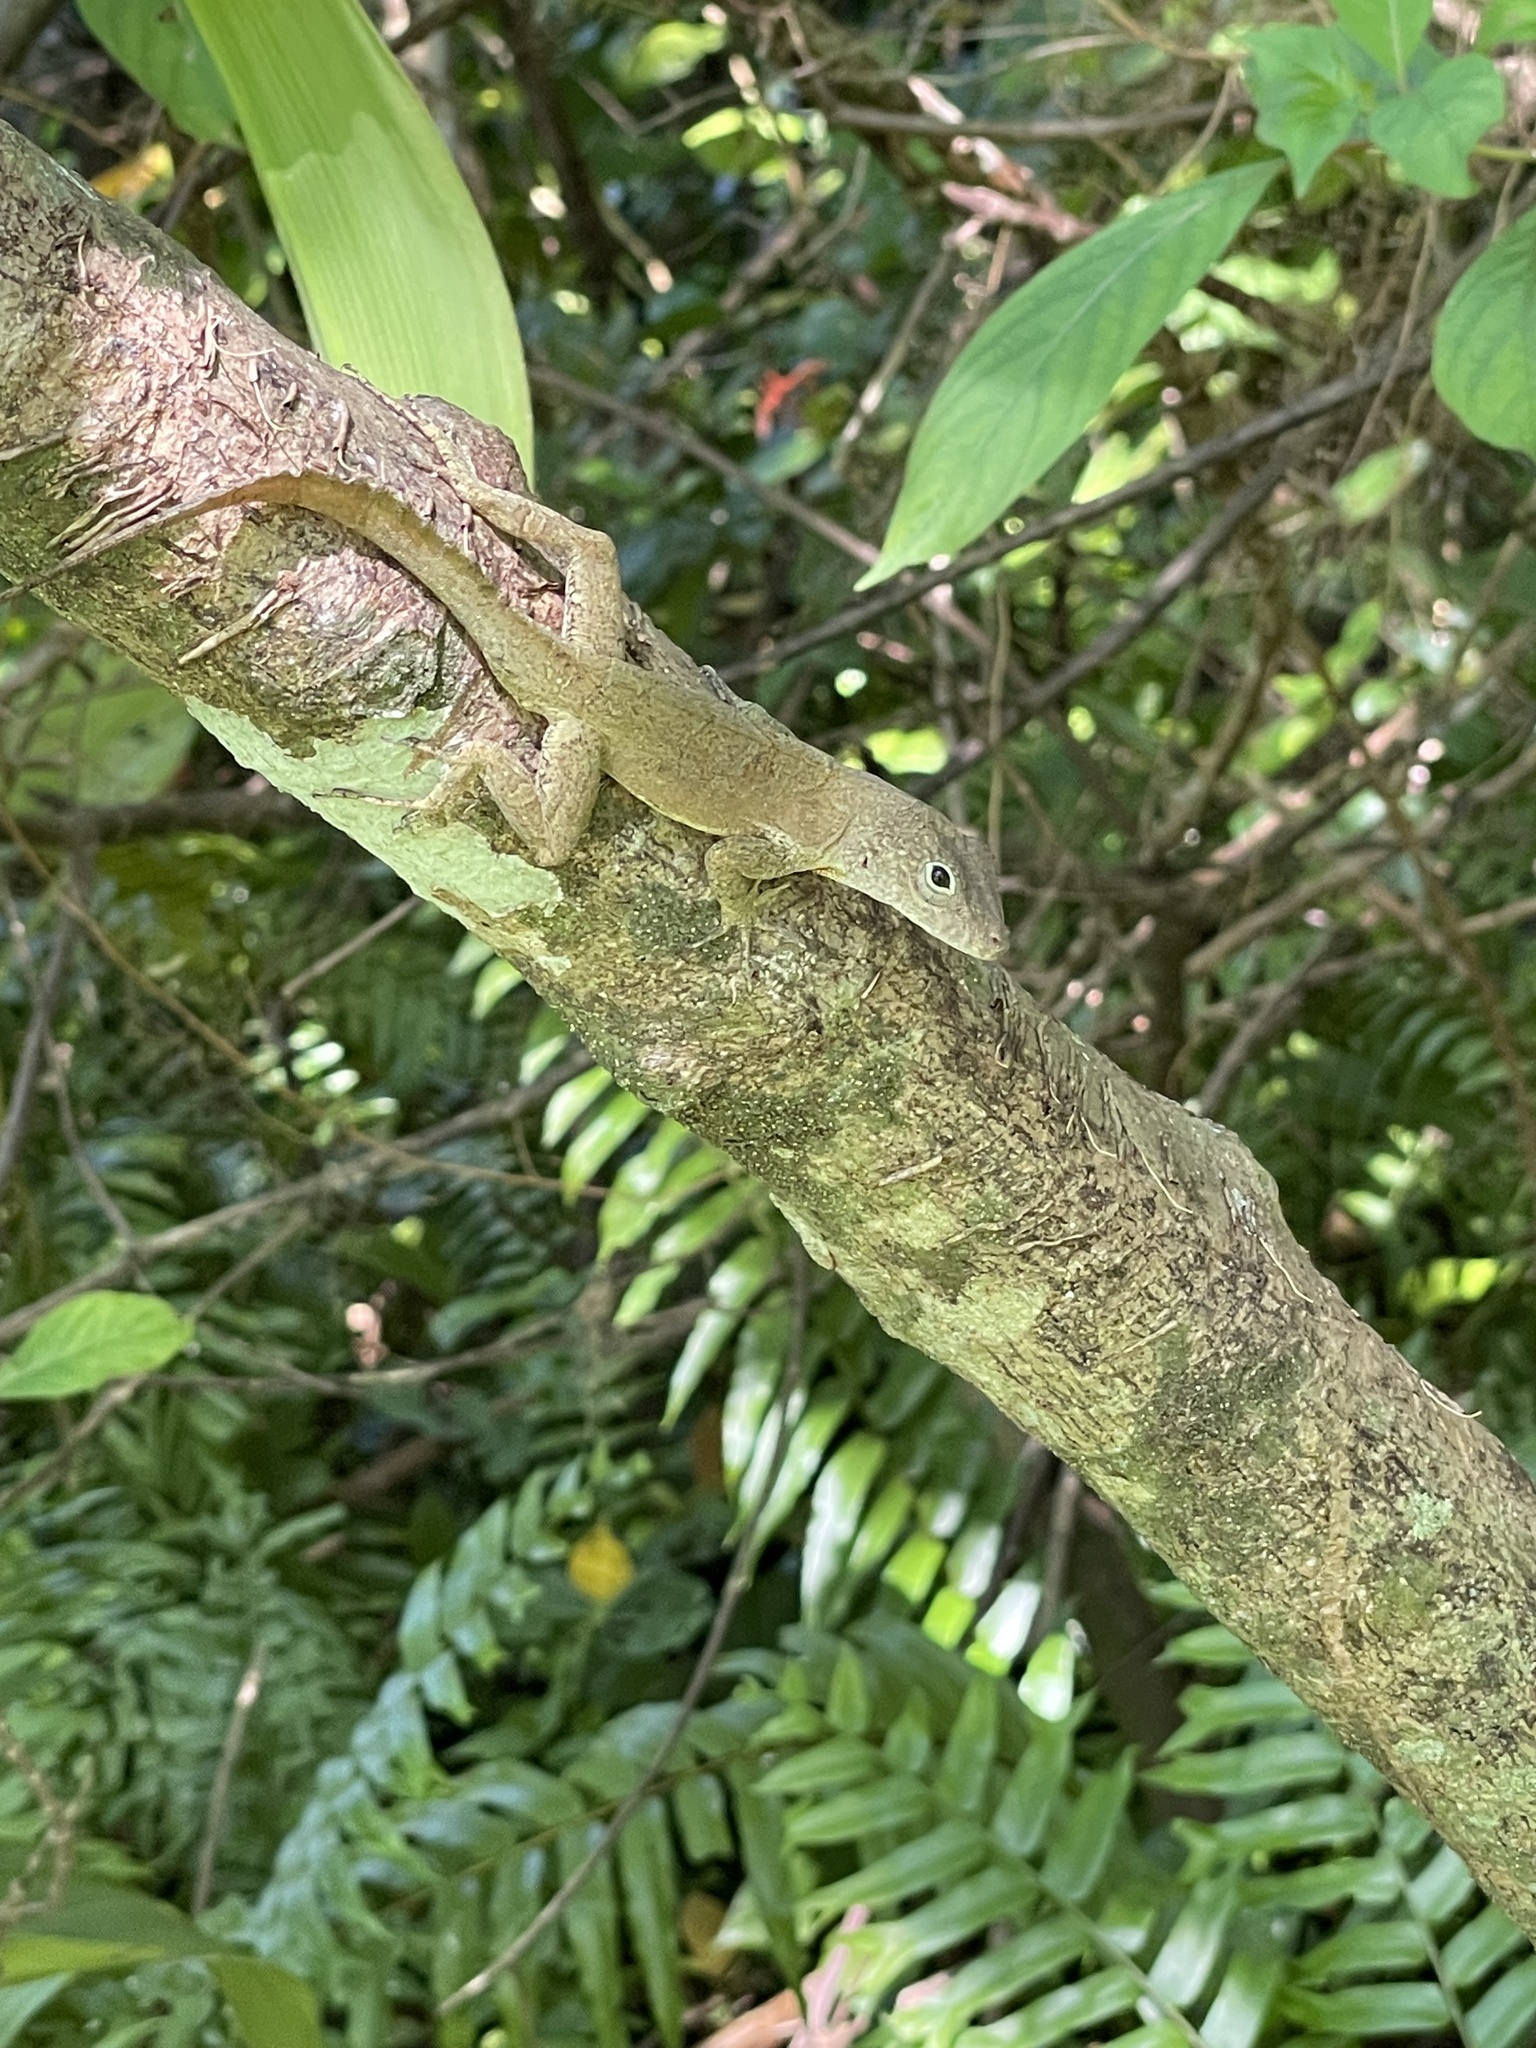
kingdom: Animalia
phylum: Chordata
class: Squamata
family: Dactyloidae
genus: Anolis
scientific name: Anolis cristatellus
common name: Crested anole
